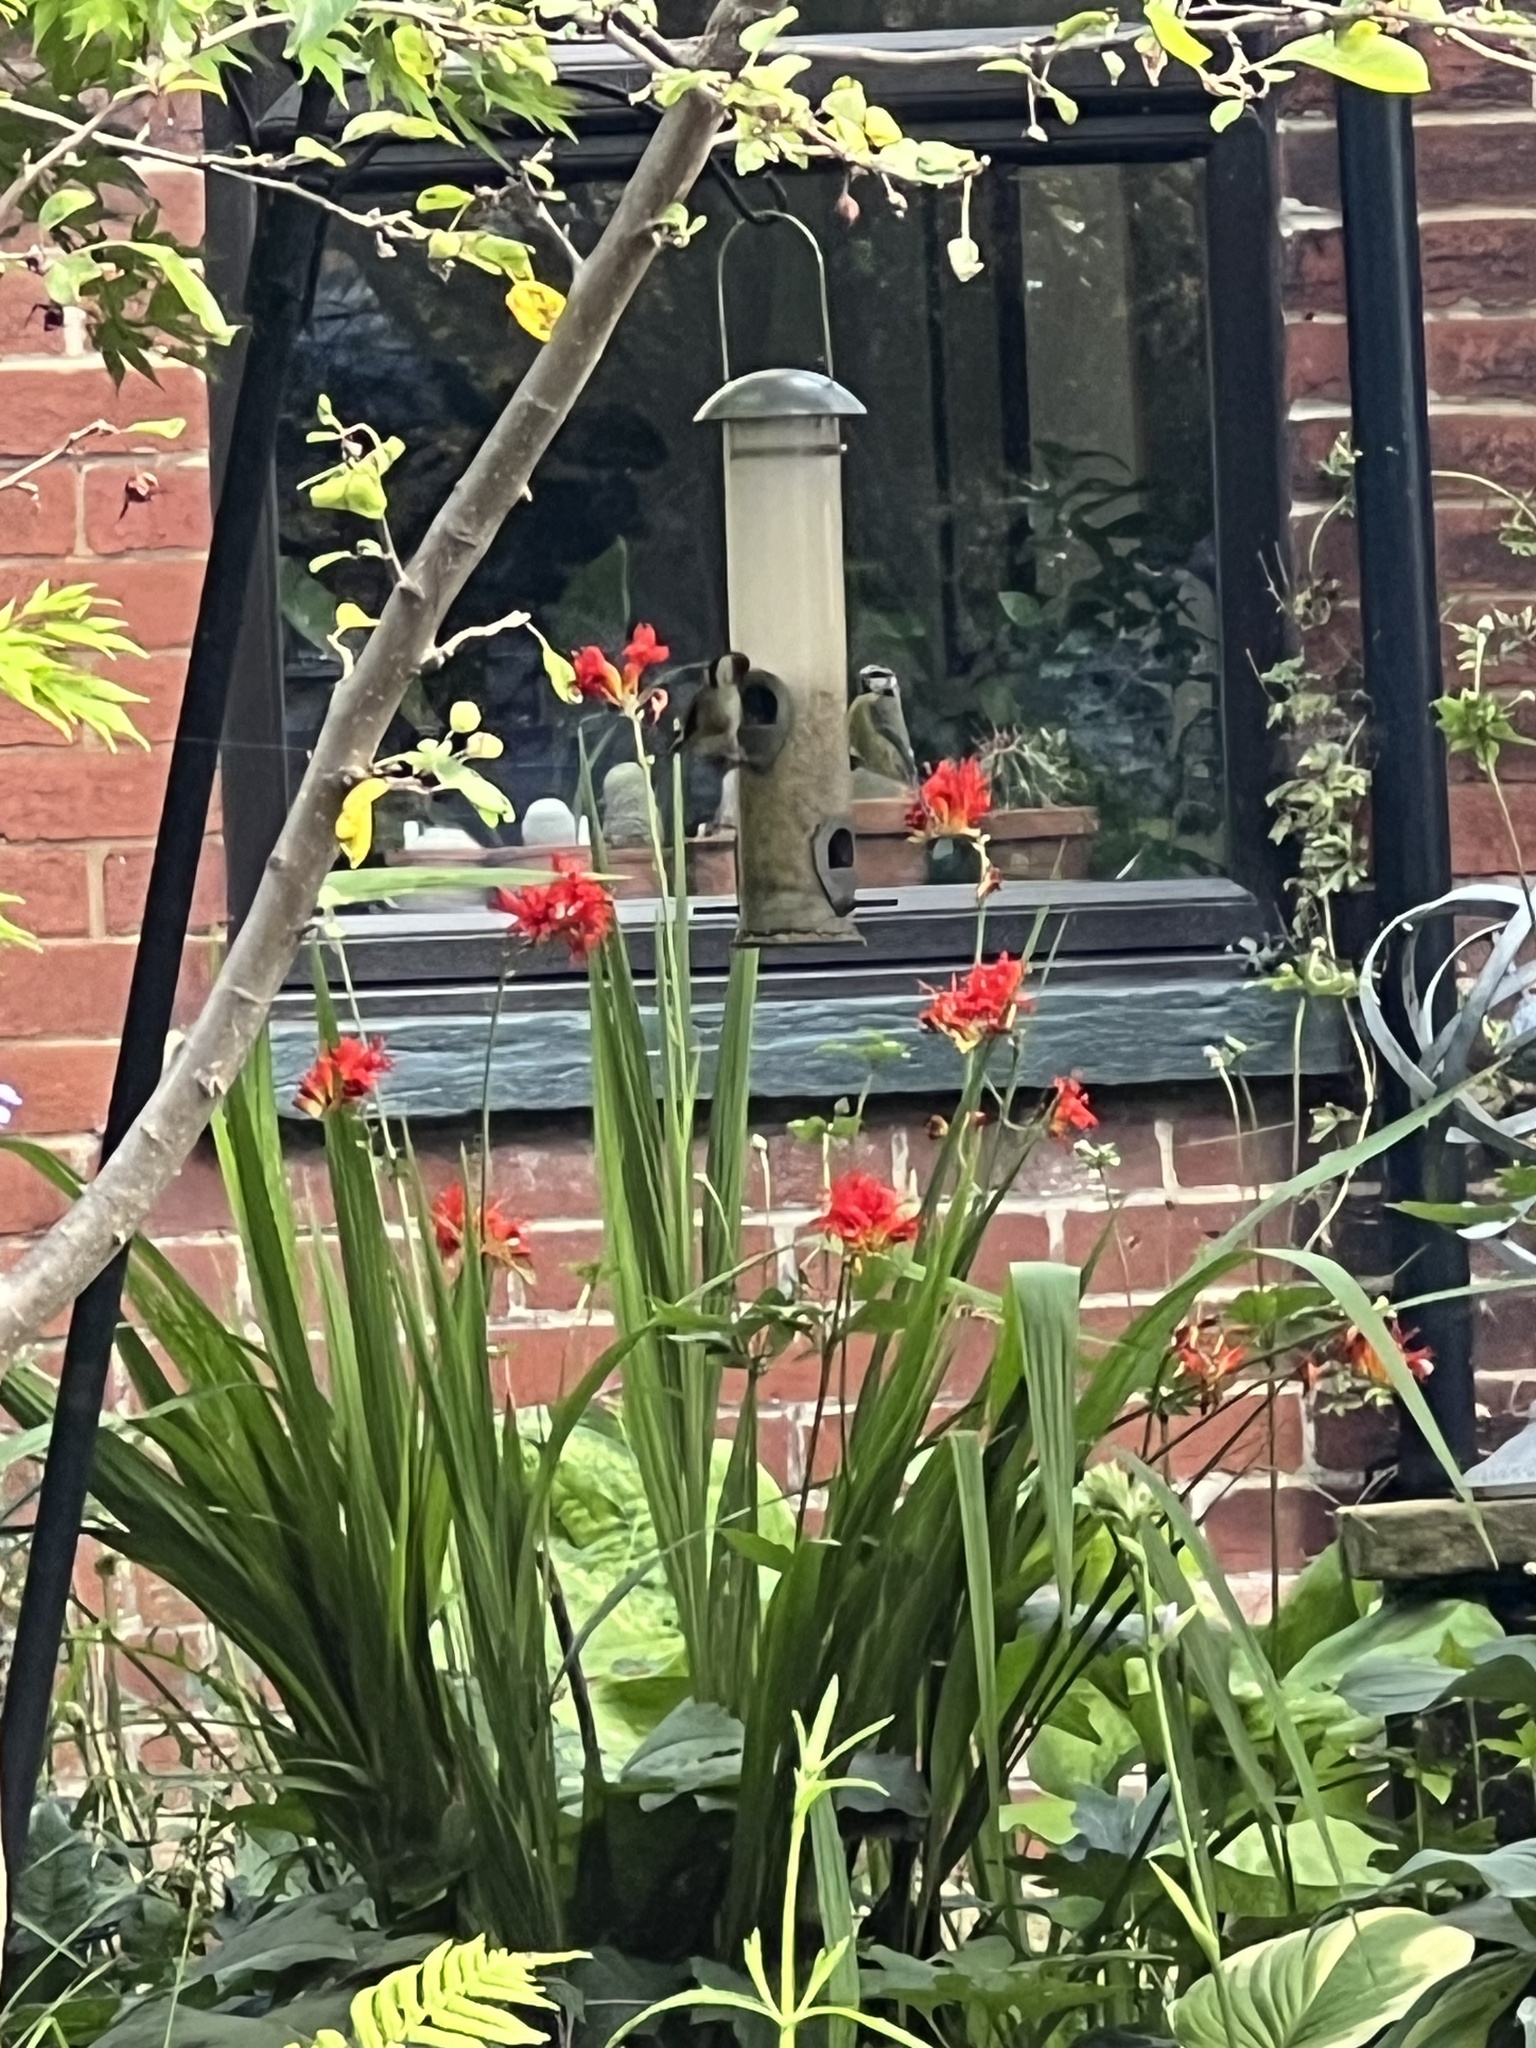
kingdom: Animalia
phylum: Chordata
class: Aves
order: Passeriformes
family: Fringillidae
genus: Carduelis
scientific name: Carduelis carduelis
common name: European goldfinch
